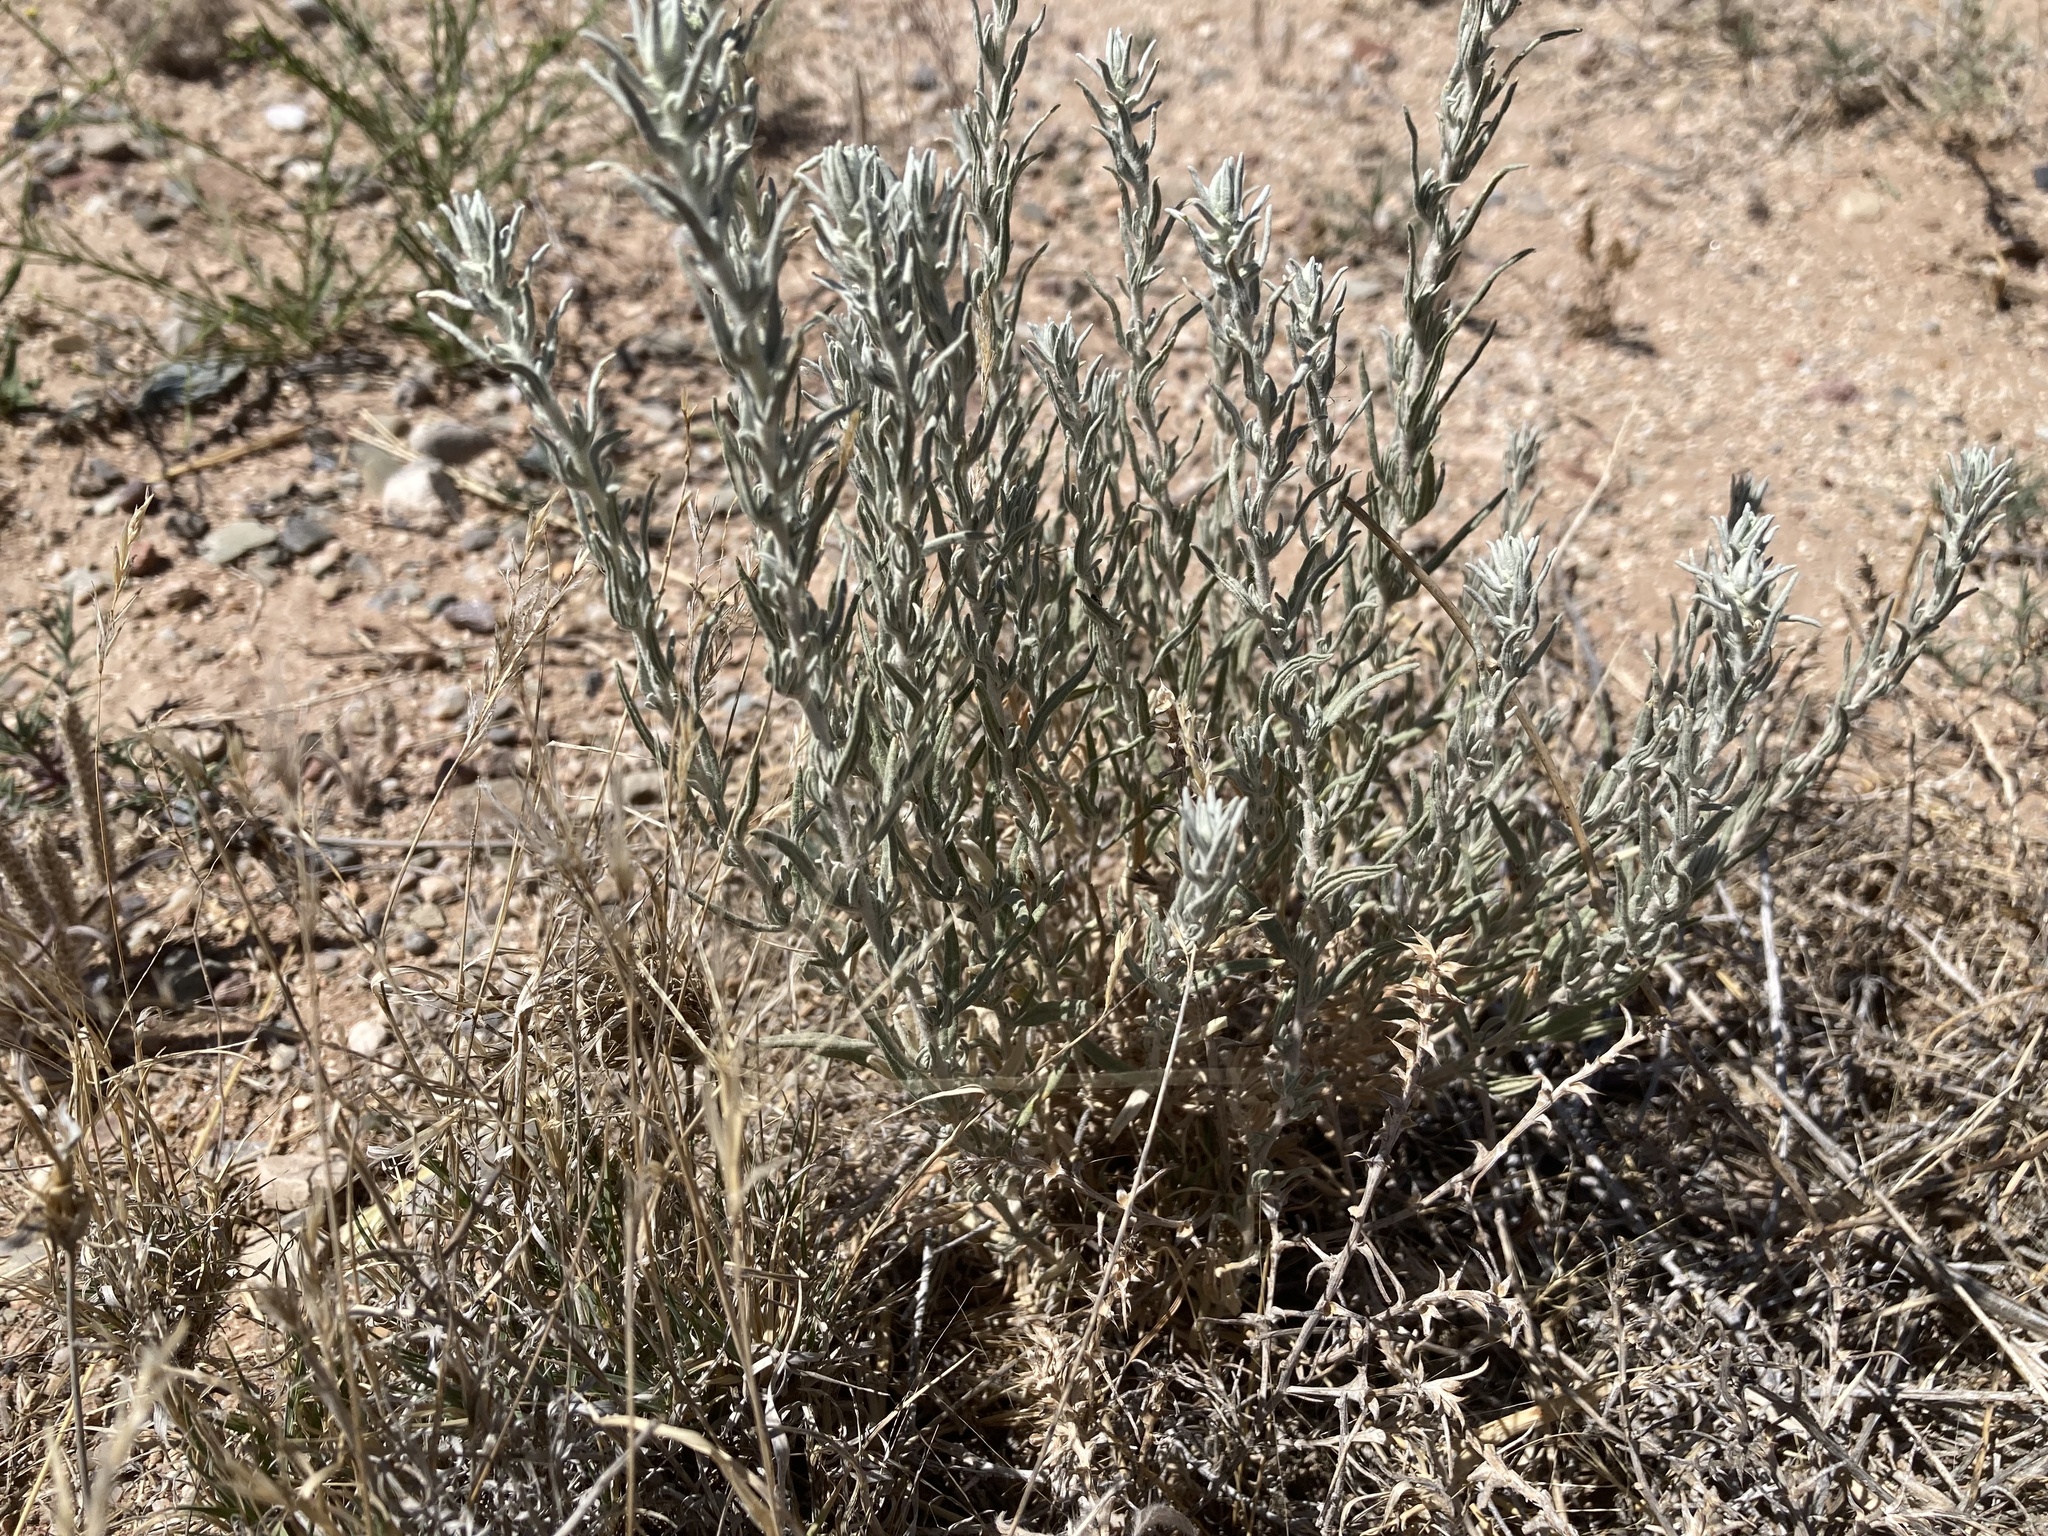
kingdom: Plantae
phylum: Tracheophyta
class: Magnoliopsida
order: Caryophyllales
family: Amaranthaceae
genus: Krascheninnikovia
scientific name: Krascheninnikovia lanata
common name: Winterfat
